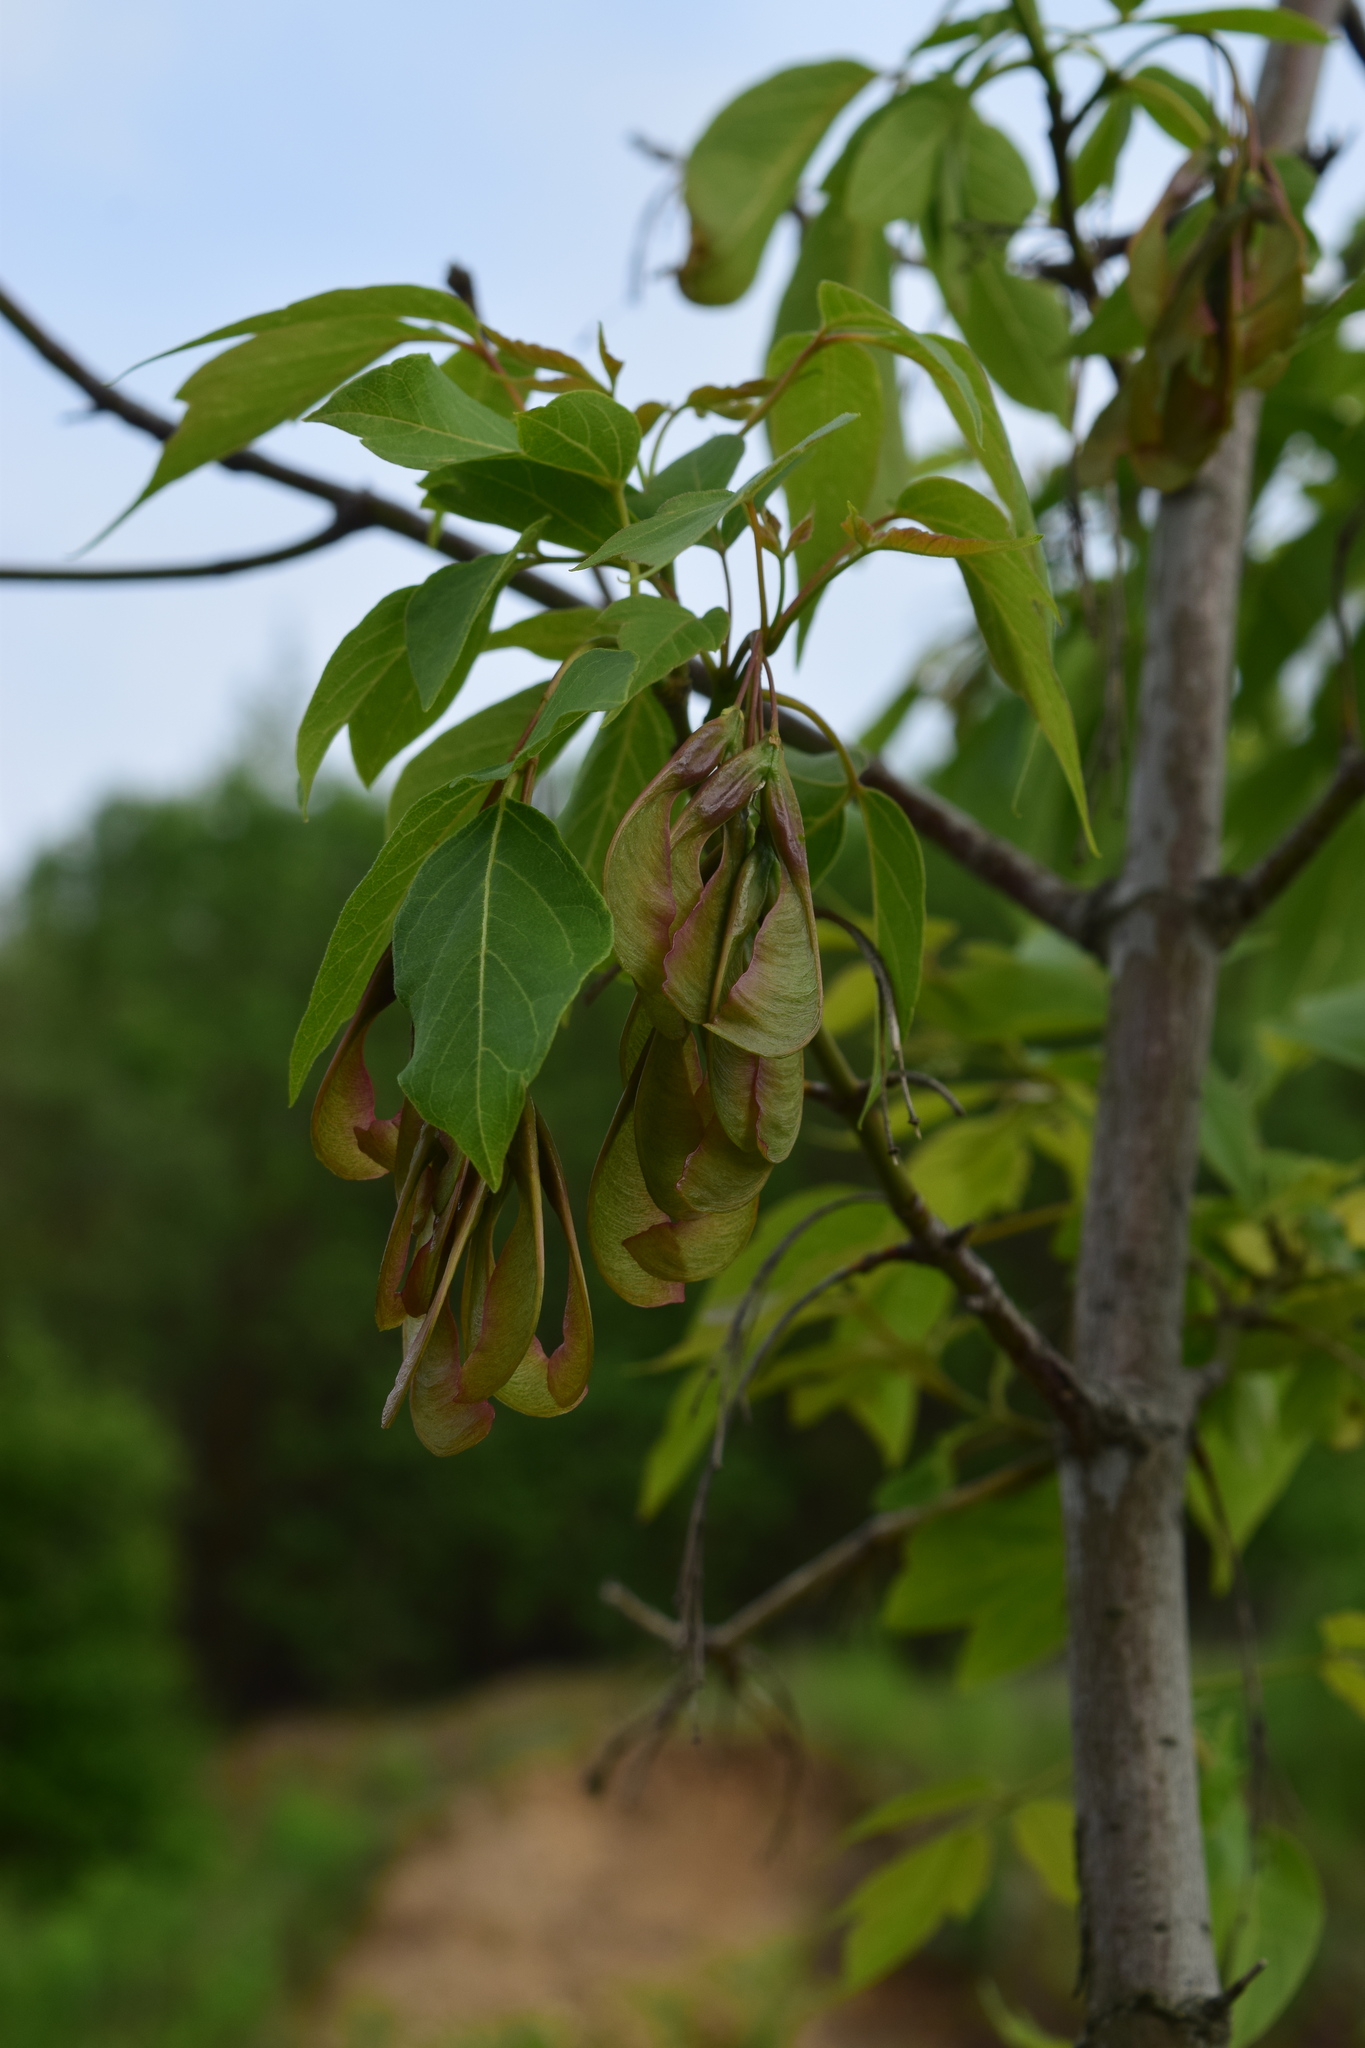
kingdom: Plantae
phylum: Tracheophyta
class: Magnoliopsida
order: Sapindales
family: Sapindaceae
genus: Acer
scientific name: Acer negundo
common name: Ashleaf maple
